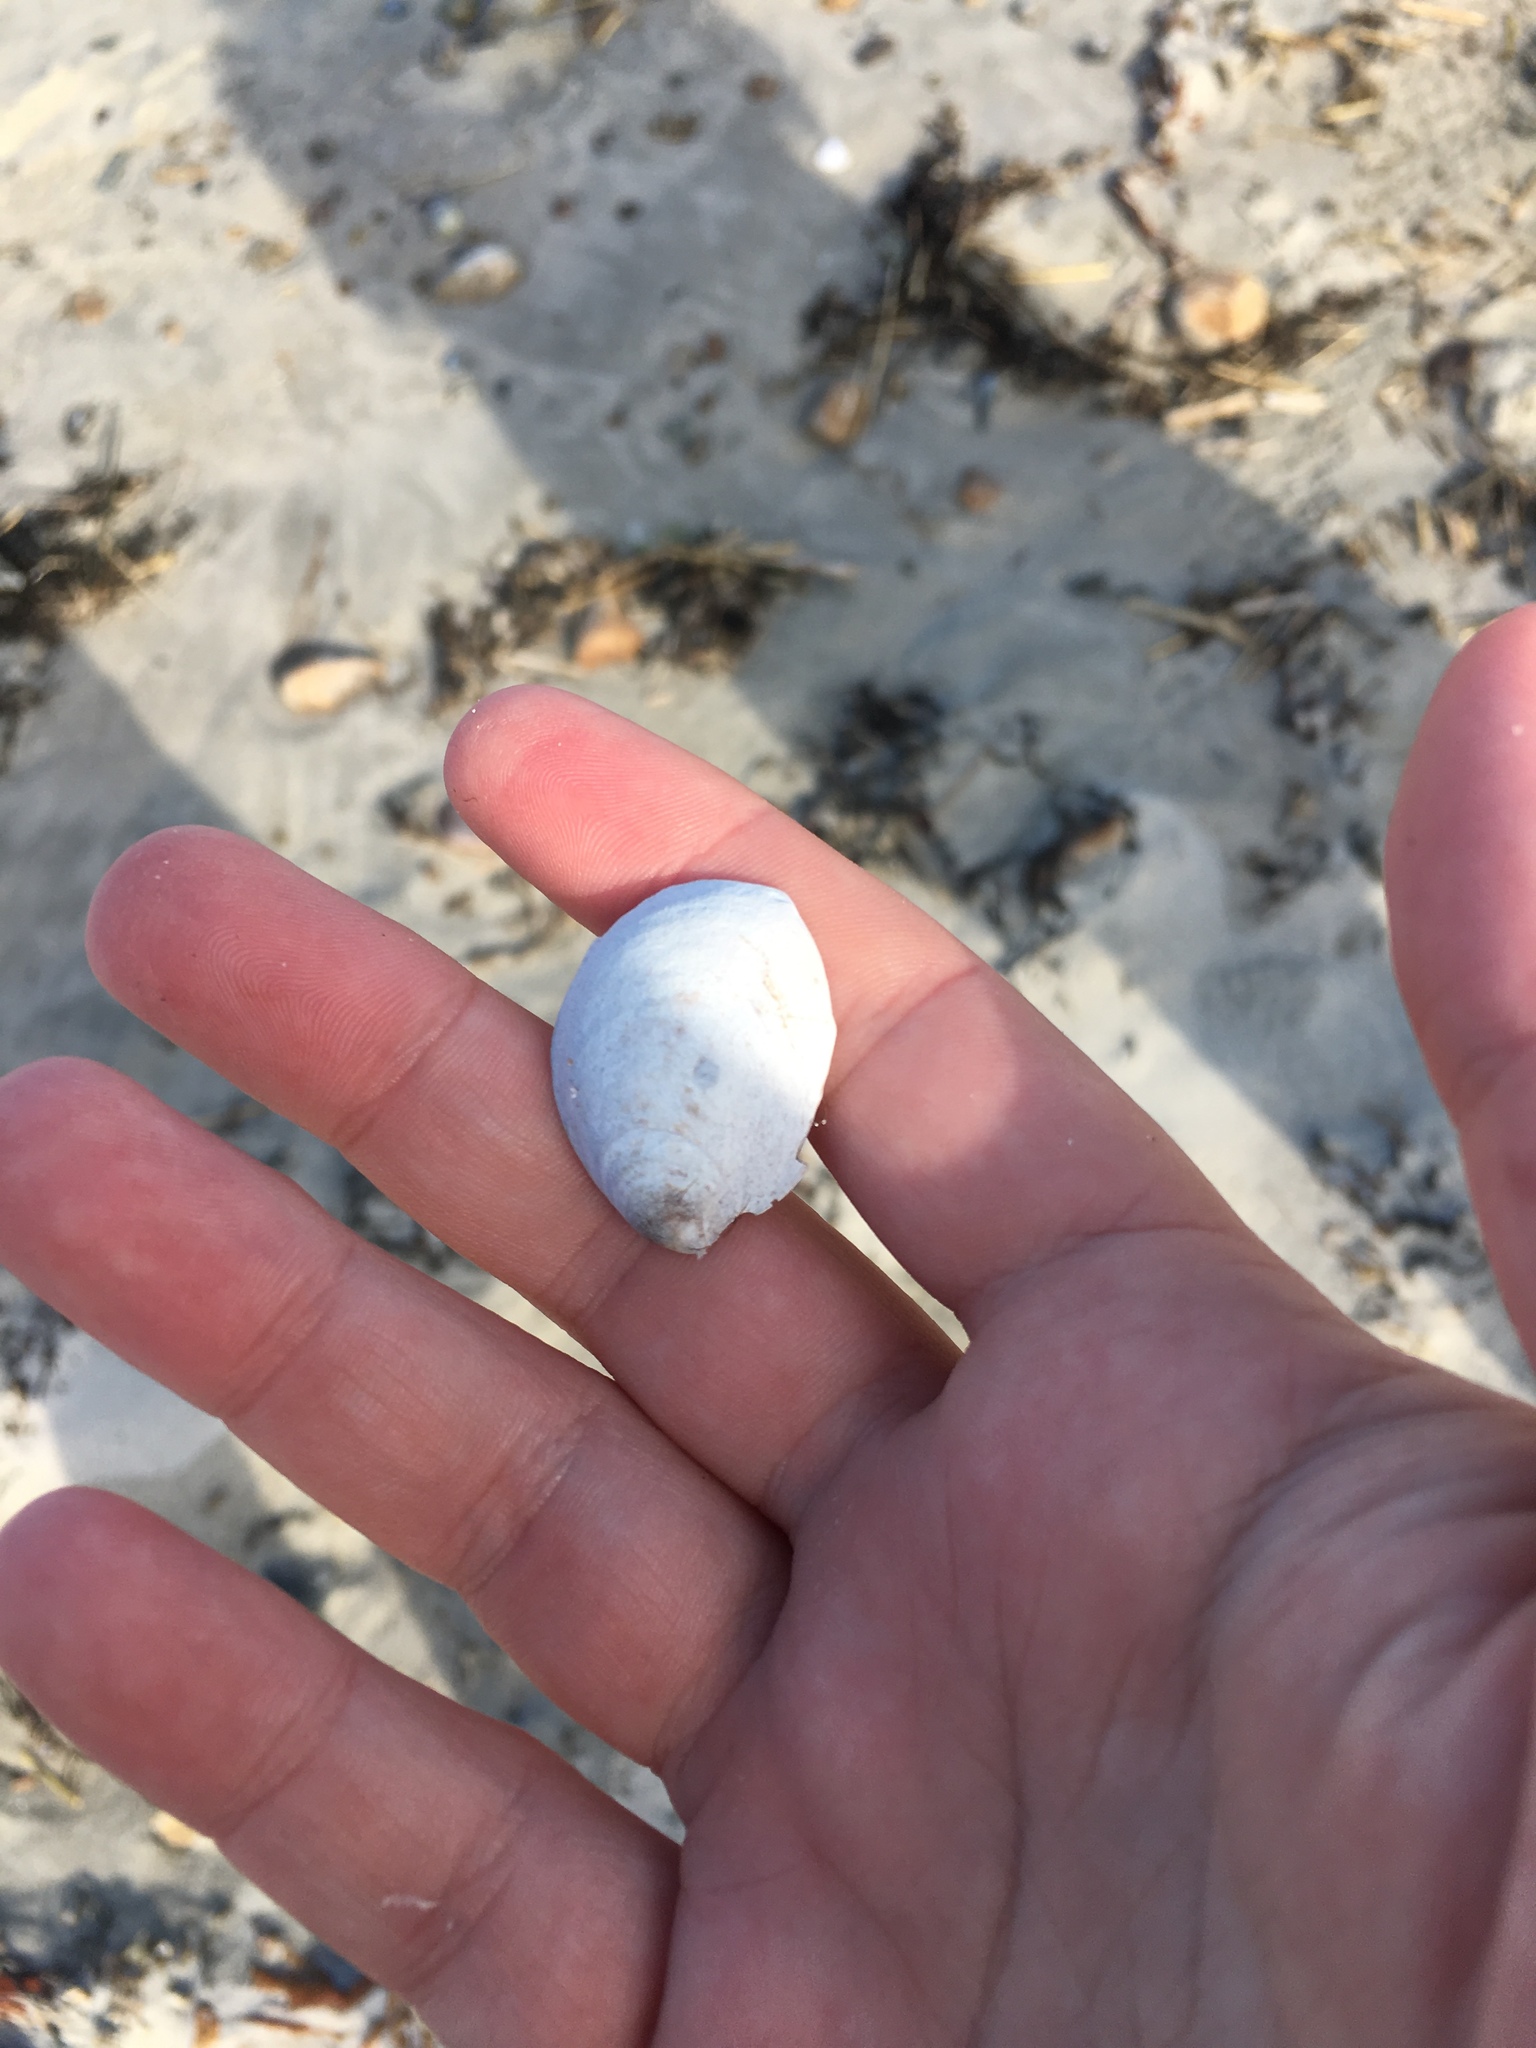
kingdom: Animalia
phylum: Mollusca
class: Gastropoda
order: Littorinimorpha
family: Calyptraeidae
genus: Crepidula
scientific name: Crepidula fornicata
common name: Slipper limpet
